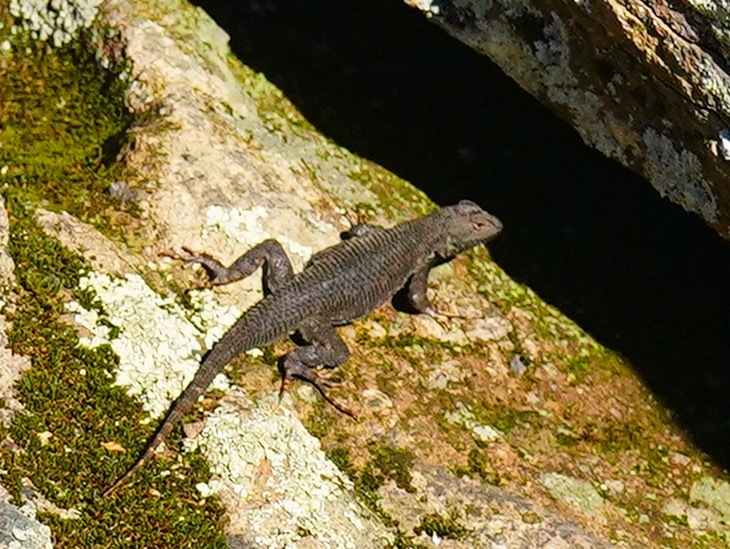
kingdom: Animalia
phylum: Chordata
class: Squamata
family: Phrynosomatidae
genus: Sceloporus
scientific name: Sceloporus occidentalis
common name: Western fence lizard
